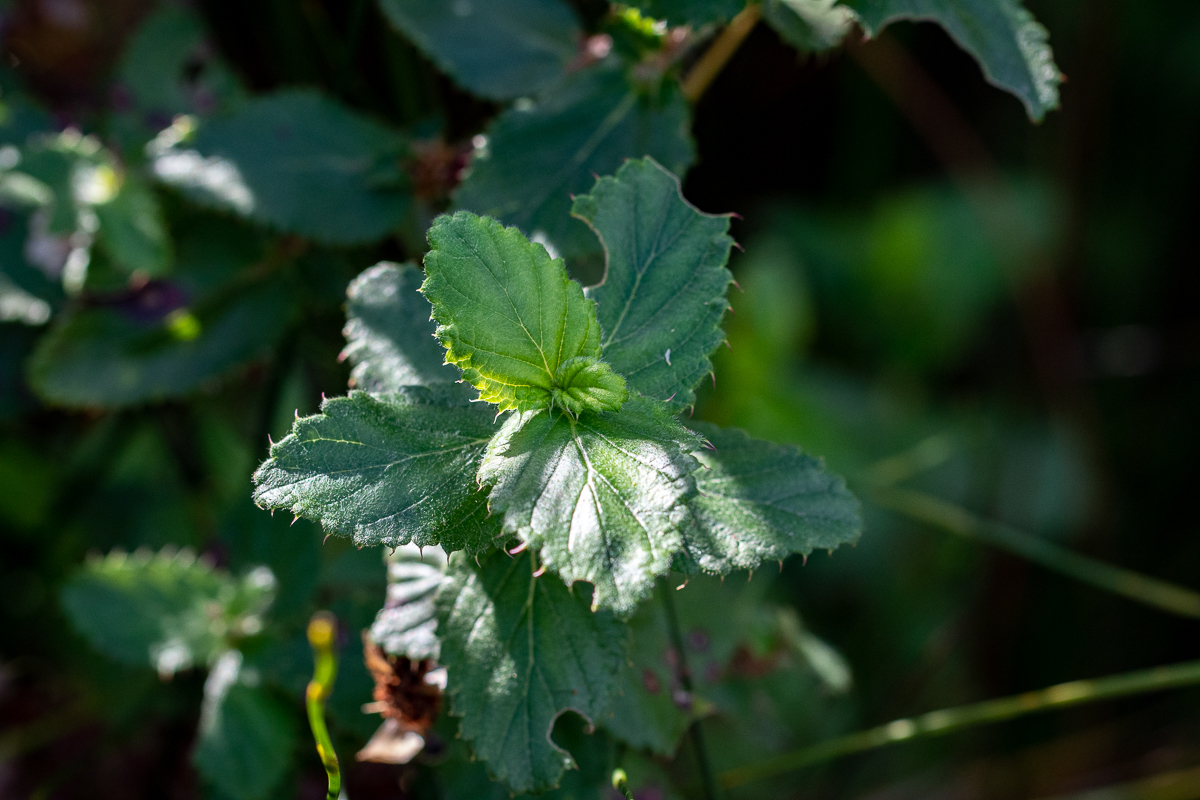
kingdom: Plantae
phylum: Tracheophyta
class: Magnoliopsida
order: Rosales
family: Rosaceae
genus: Cliffortia
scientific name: Cliffortia hirsuta
